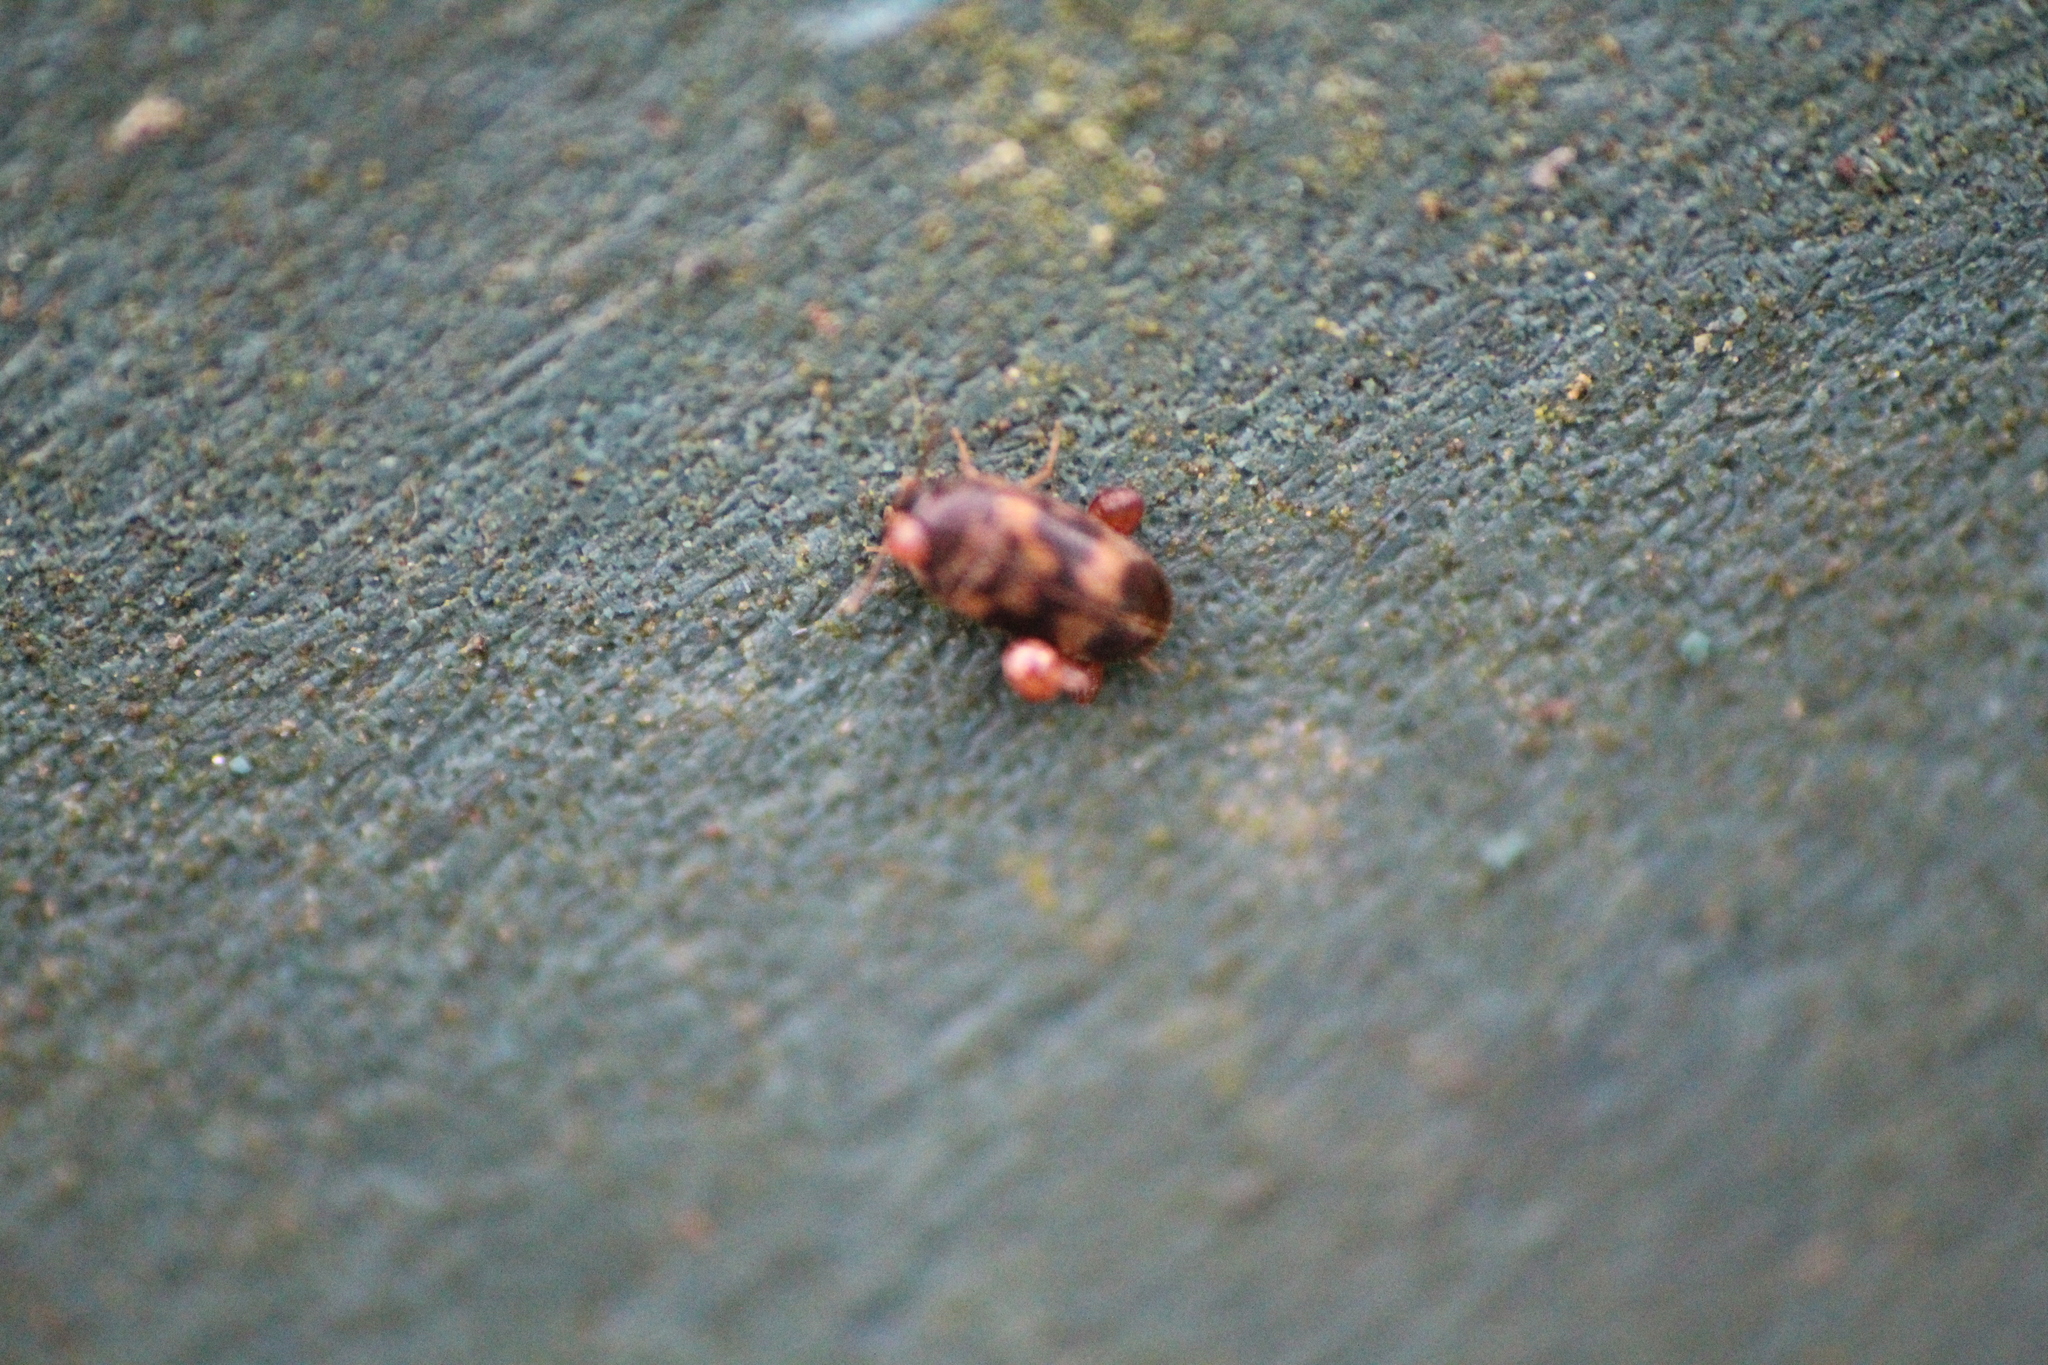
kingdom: Animalia
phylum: Arthropoda
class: Insecta
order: Coleoptera
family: Mycetophagidae
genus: Litargus
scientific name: Litargus balteatus
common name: Stored grain hairy fungus beetle
